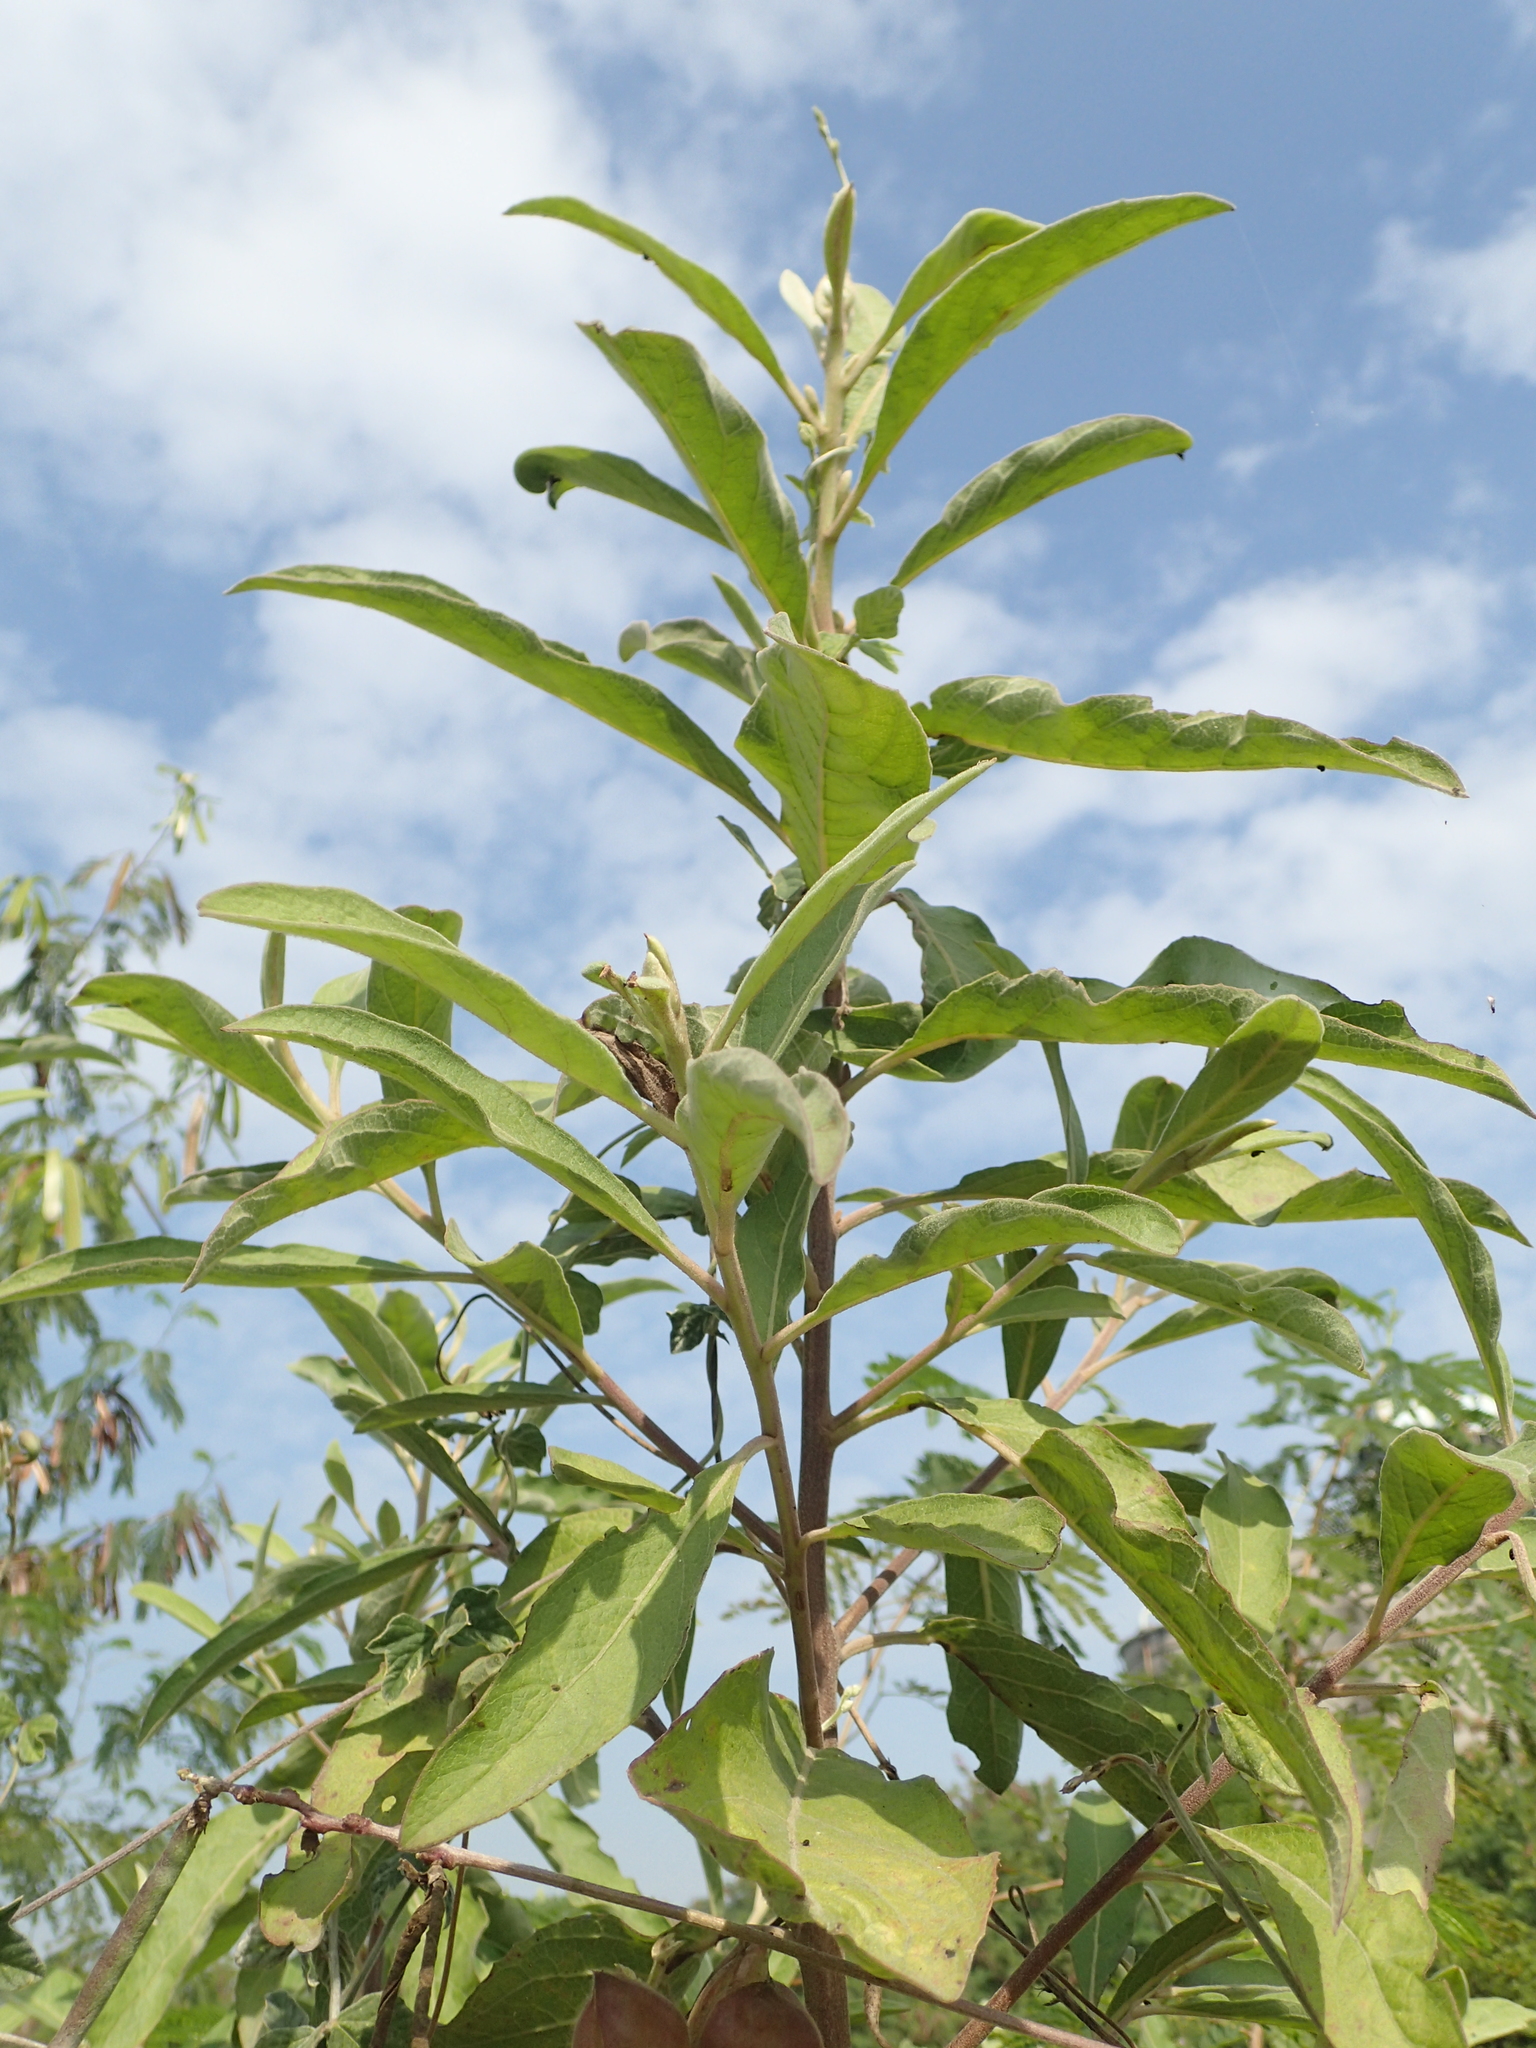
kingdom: Plantae
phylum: Tracheophyta
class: Magnoliopsida
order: Asterales
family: Asteraceae
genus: Pluchea
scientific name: Pluchea carolinensis
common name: Marsh fleabane
